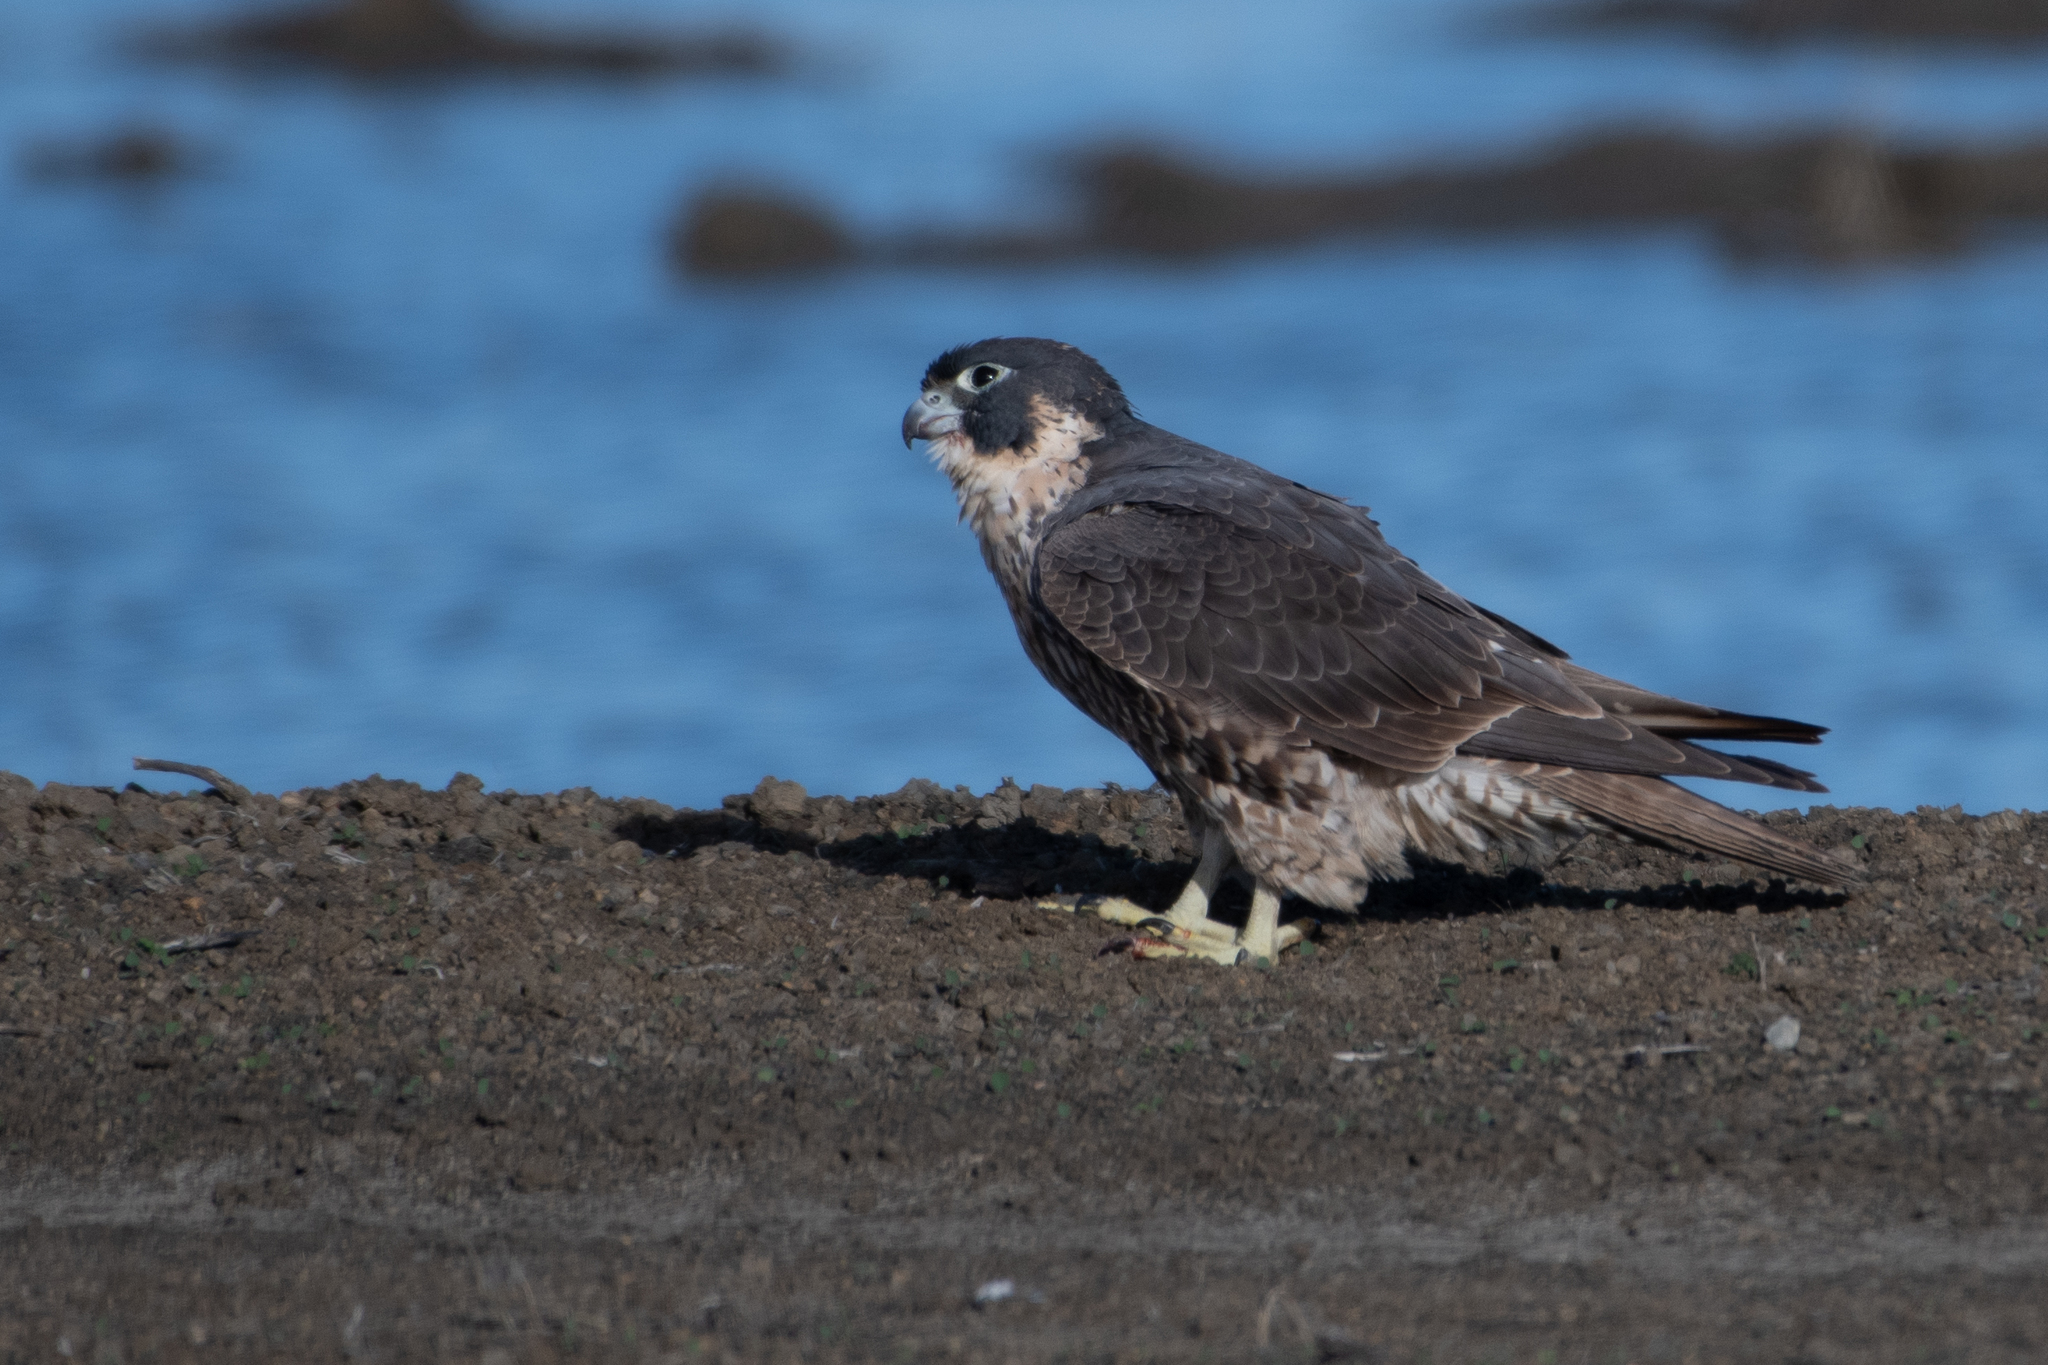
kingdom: Animalia
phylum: Chordata
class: Aves
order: Falconiformes
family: Falconidae
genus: Falco
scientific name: Falco peregrinus
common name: Peregrine falcon
